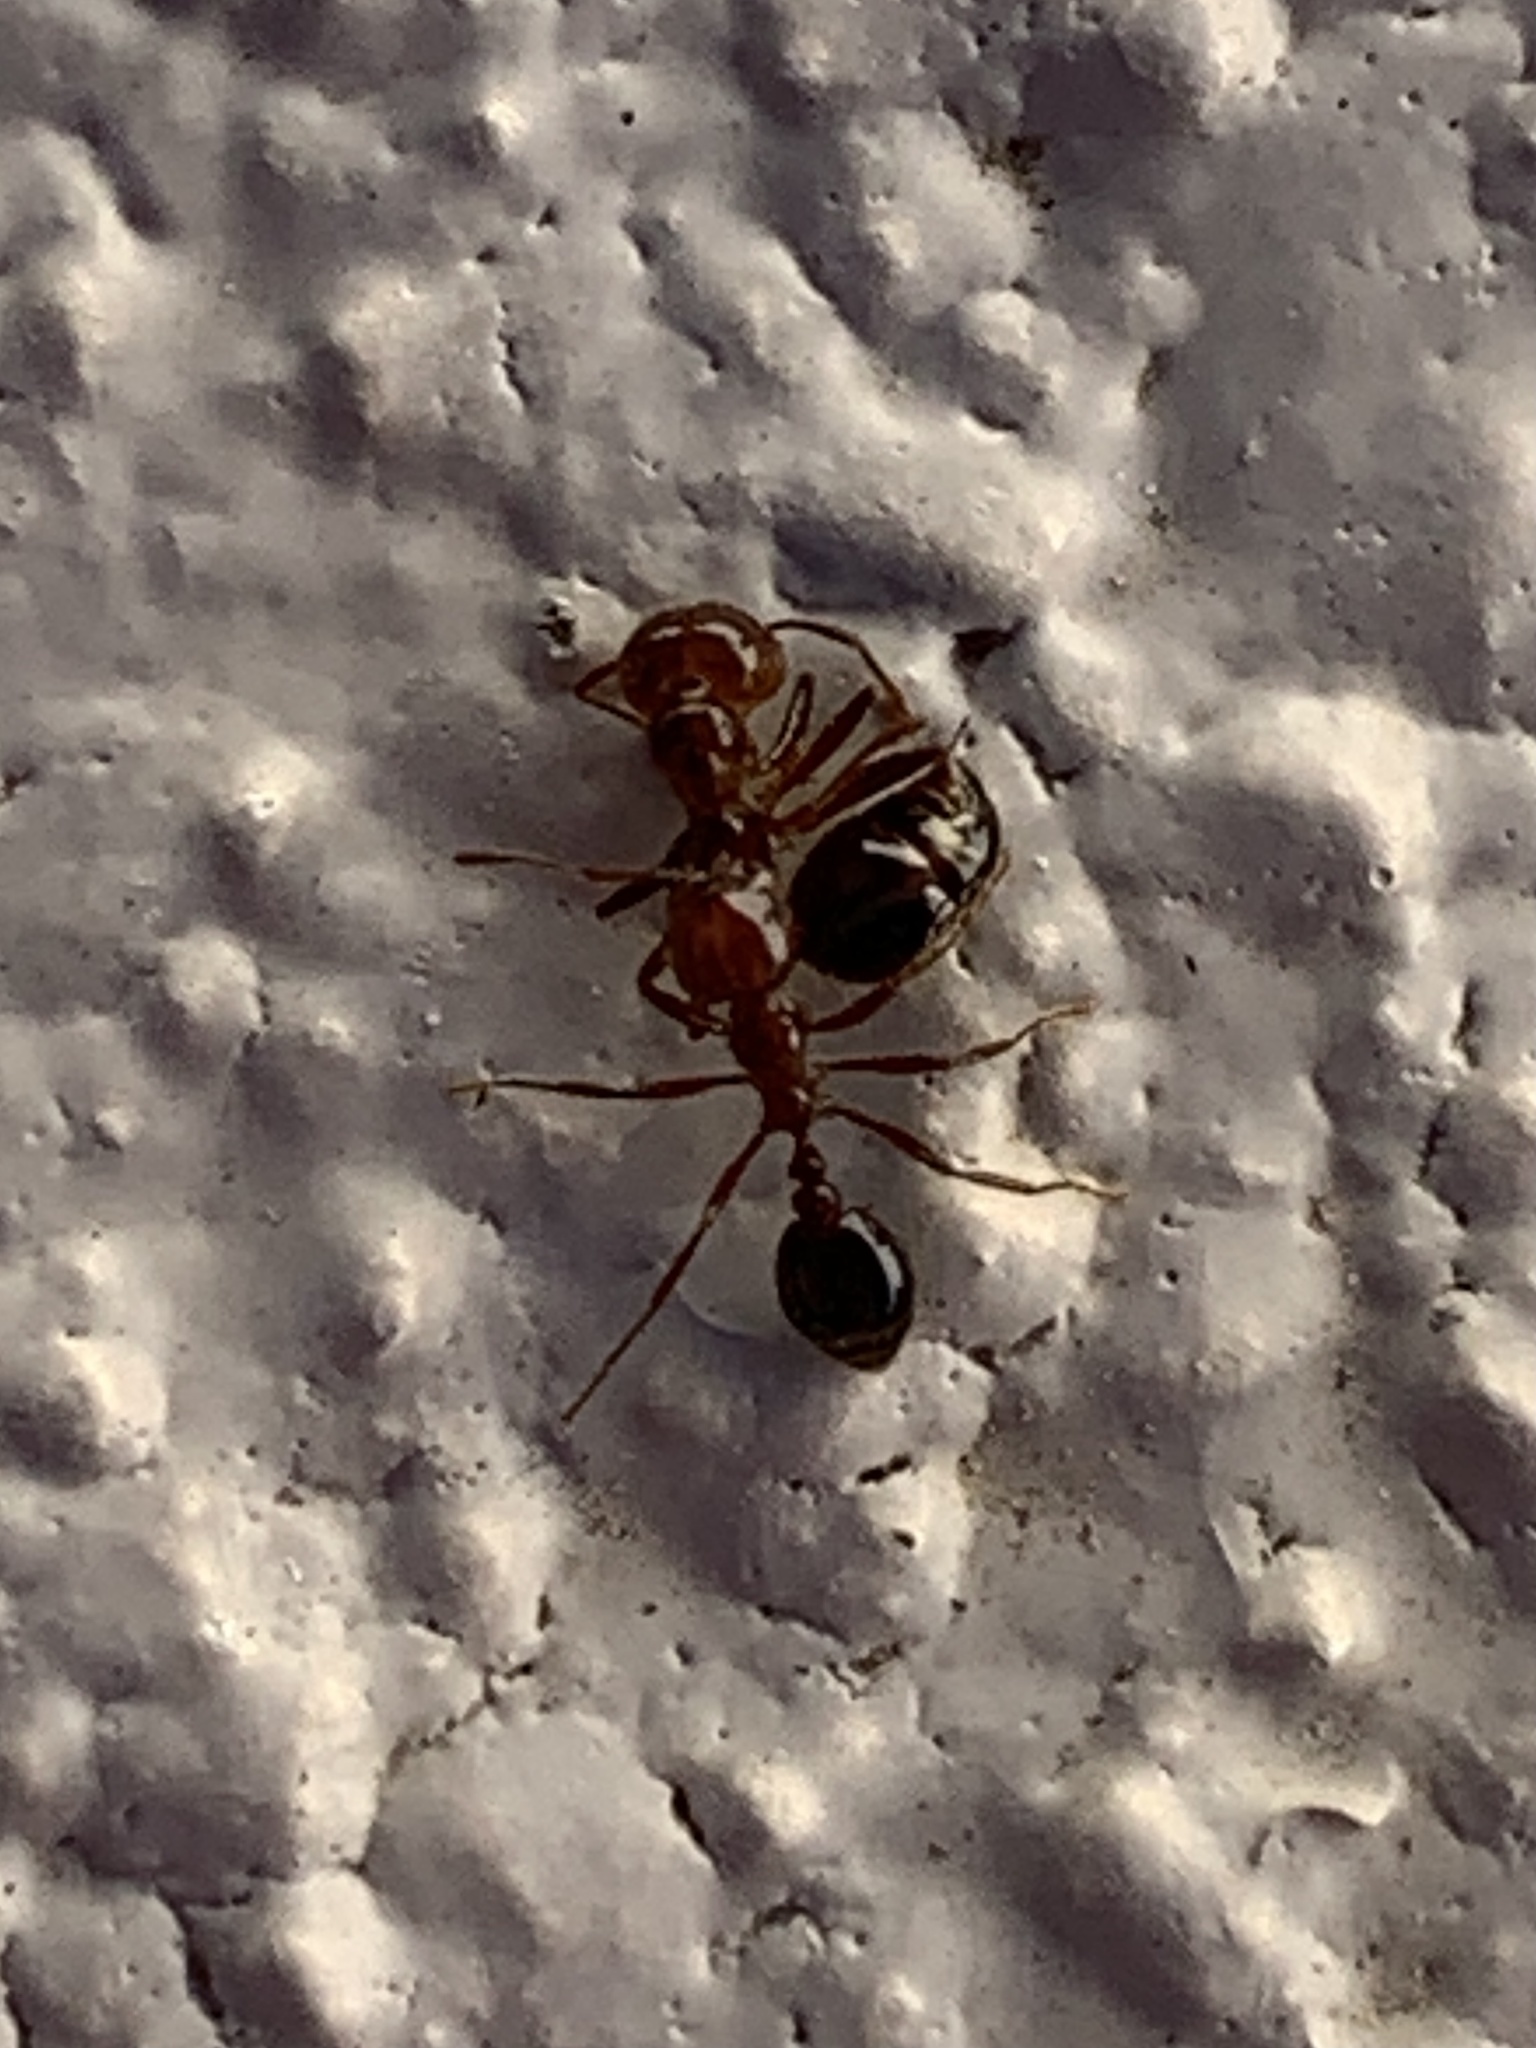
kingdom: Animalia
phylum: Arthropoda
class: Insecta
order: Hymenoptera
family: Formicidae
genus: Solenopsis
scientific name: Solenopsis invicta
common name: Red imported fire ant
